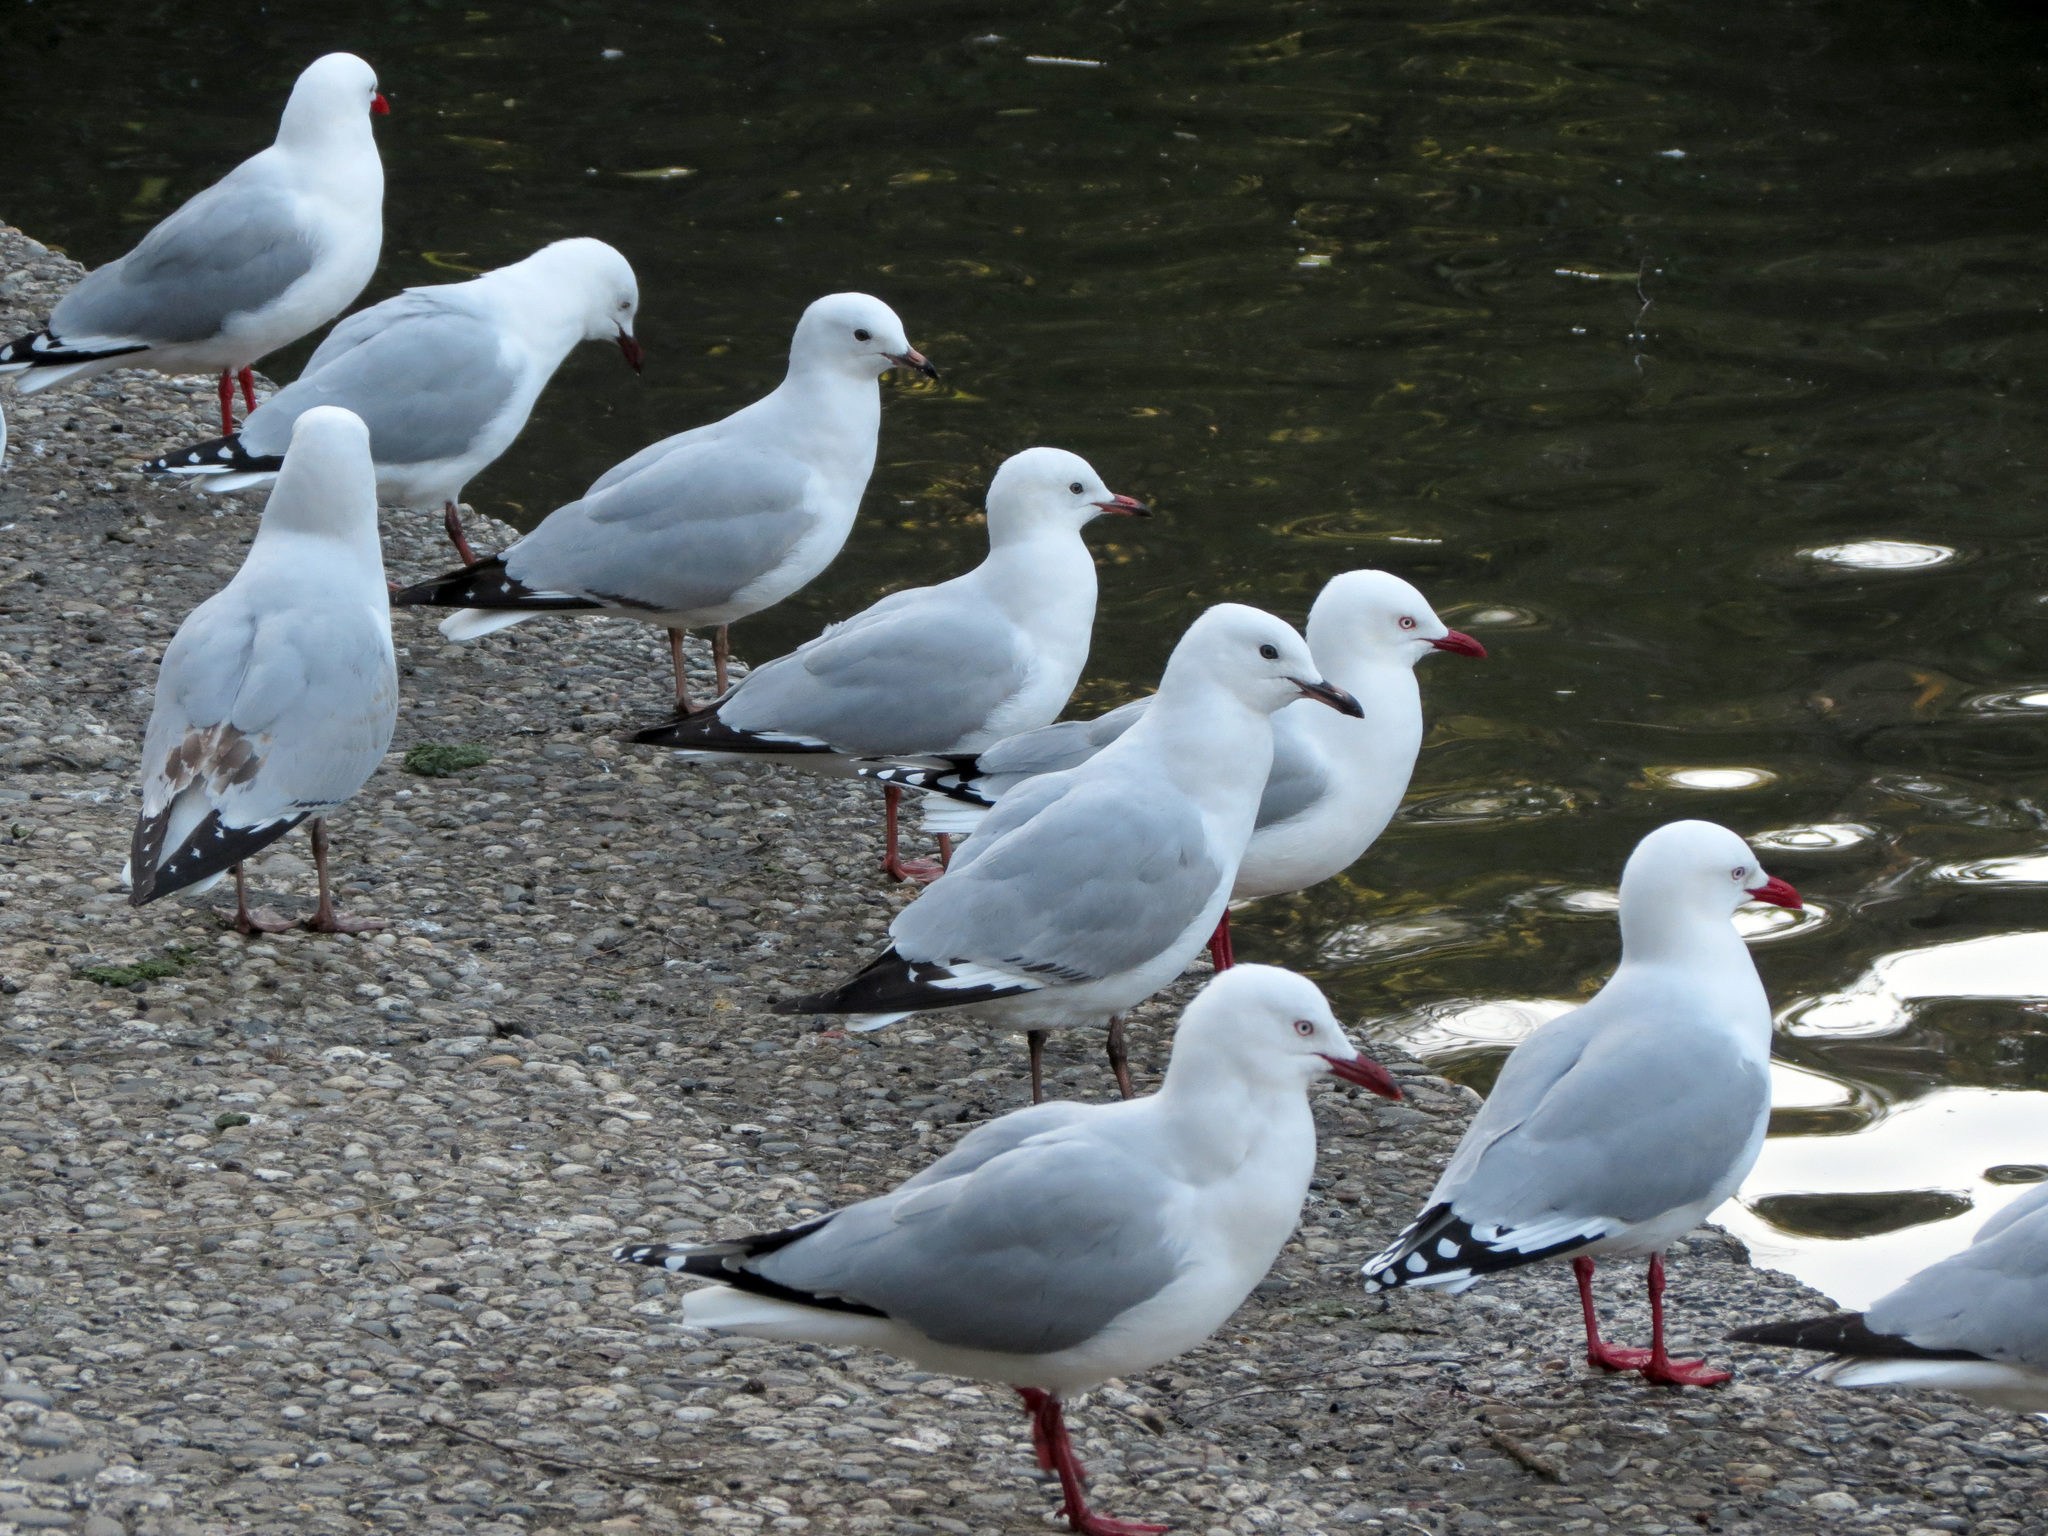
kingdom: Animalia
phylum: Chordata
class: Aves
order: Charadriiformes
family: Laridae
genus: Chroicocephalus
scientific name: Chroicocephalus novaehollandiae
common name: Silver gull
